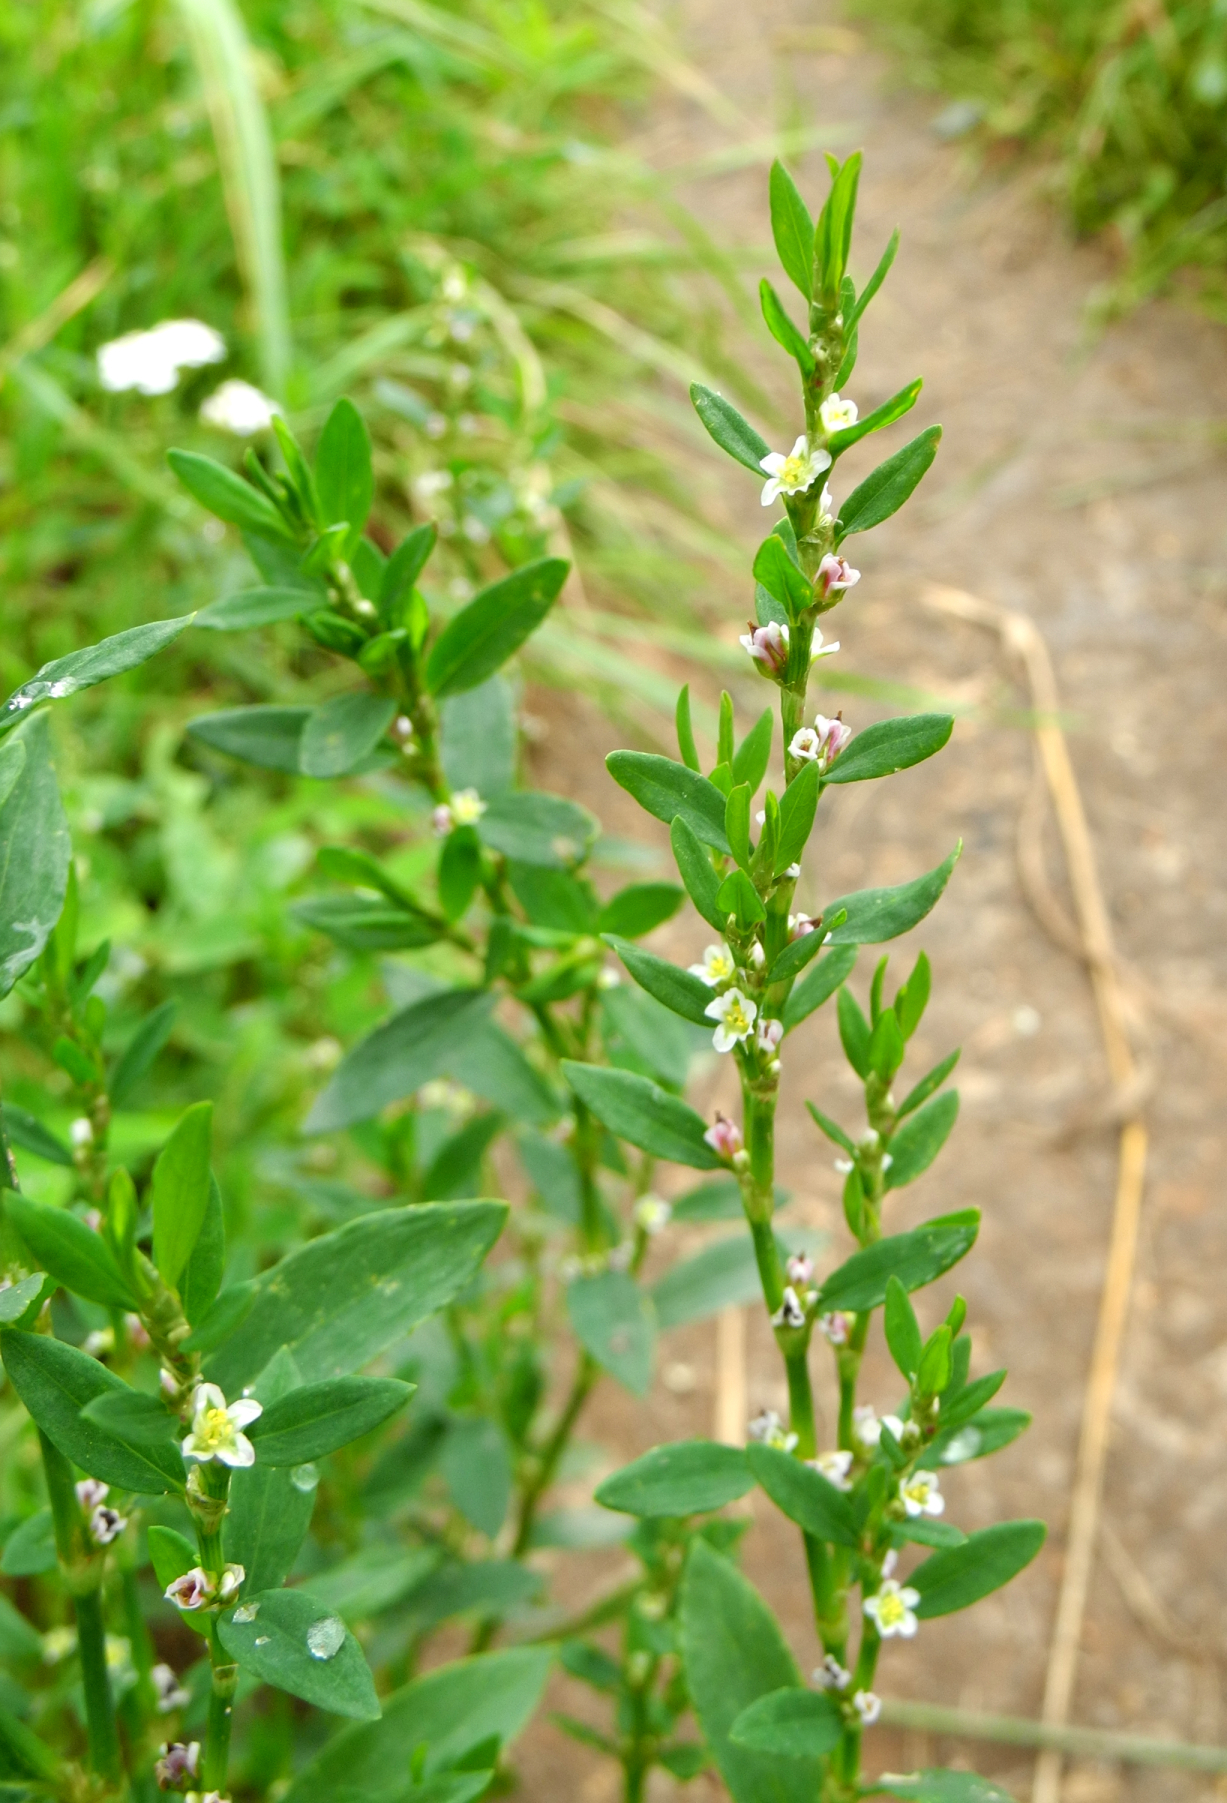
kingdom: Plantae
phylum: Tracheophyta
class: Magnoliopsida
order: Caryophyllales
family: Polygonaceae
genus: Polygonum
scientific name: Polygonum
